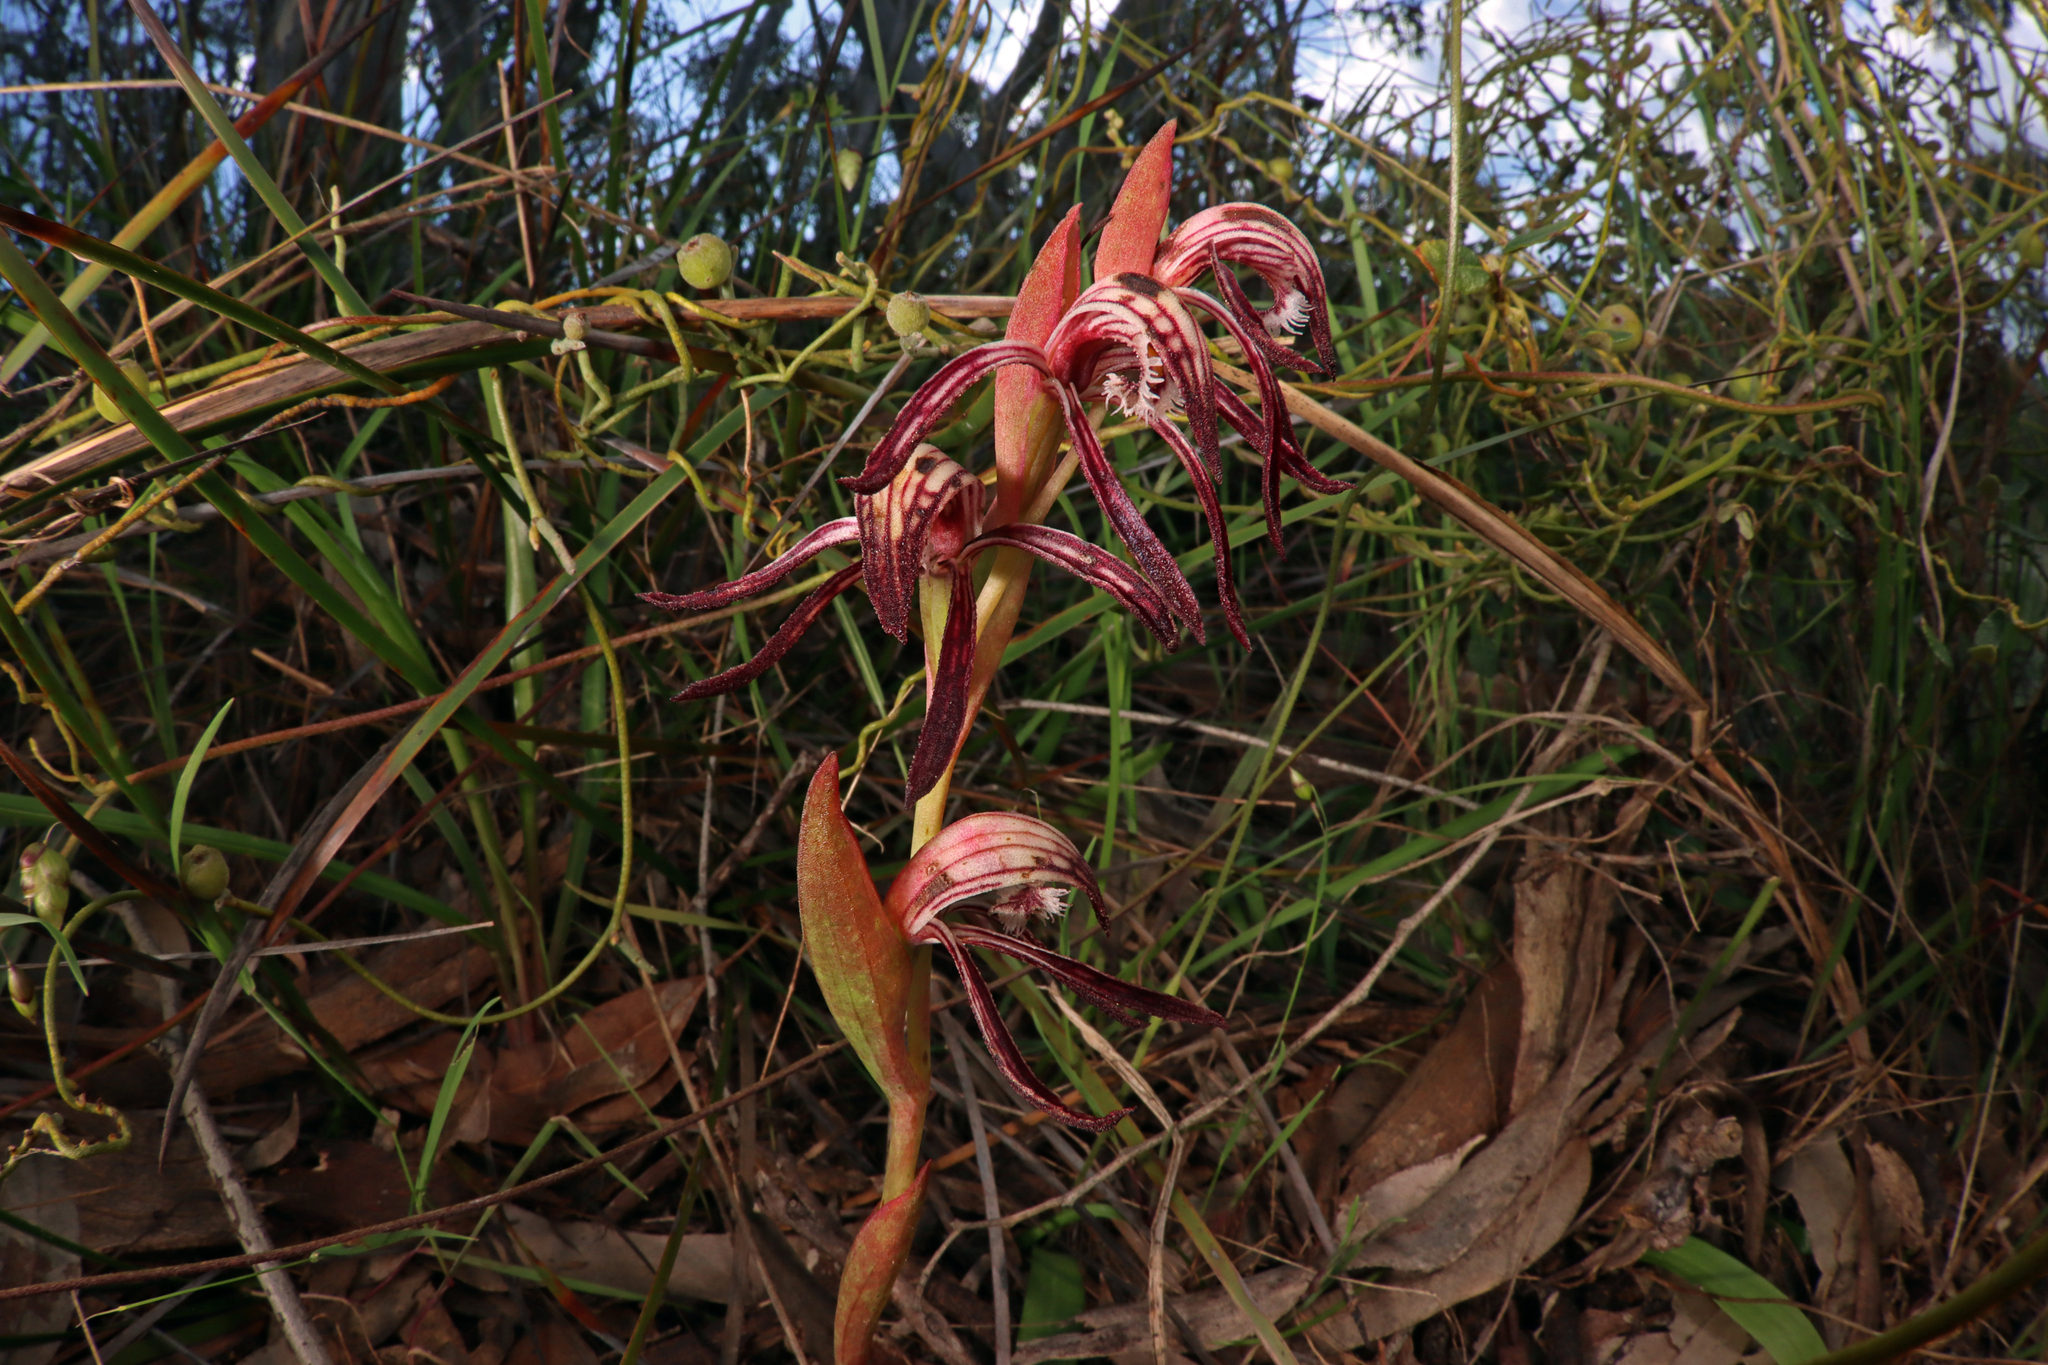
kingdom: Plantae
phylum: Tracheophyta
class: Liliopsida
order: Asparagales
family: Orchidaceae
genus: Pyrorchis
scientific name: Pyrorchis nigricans
